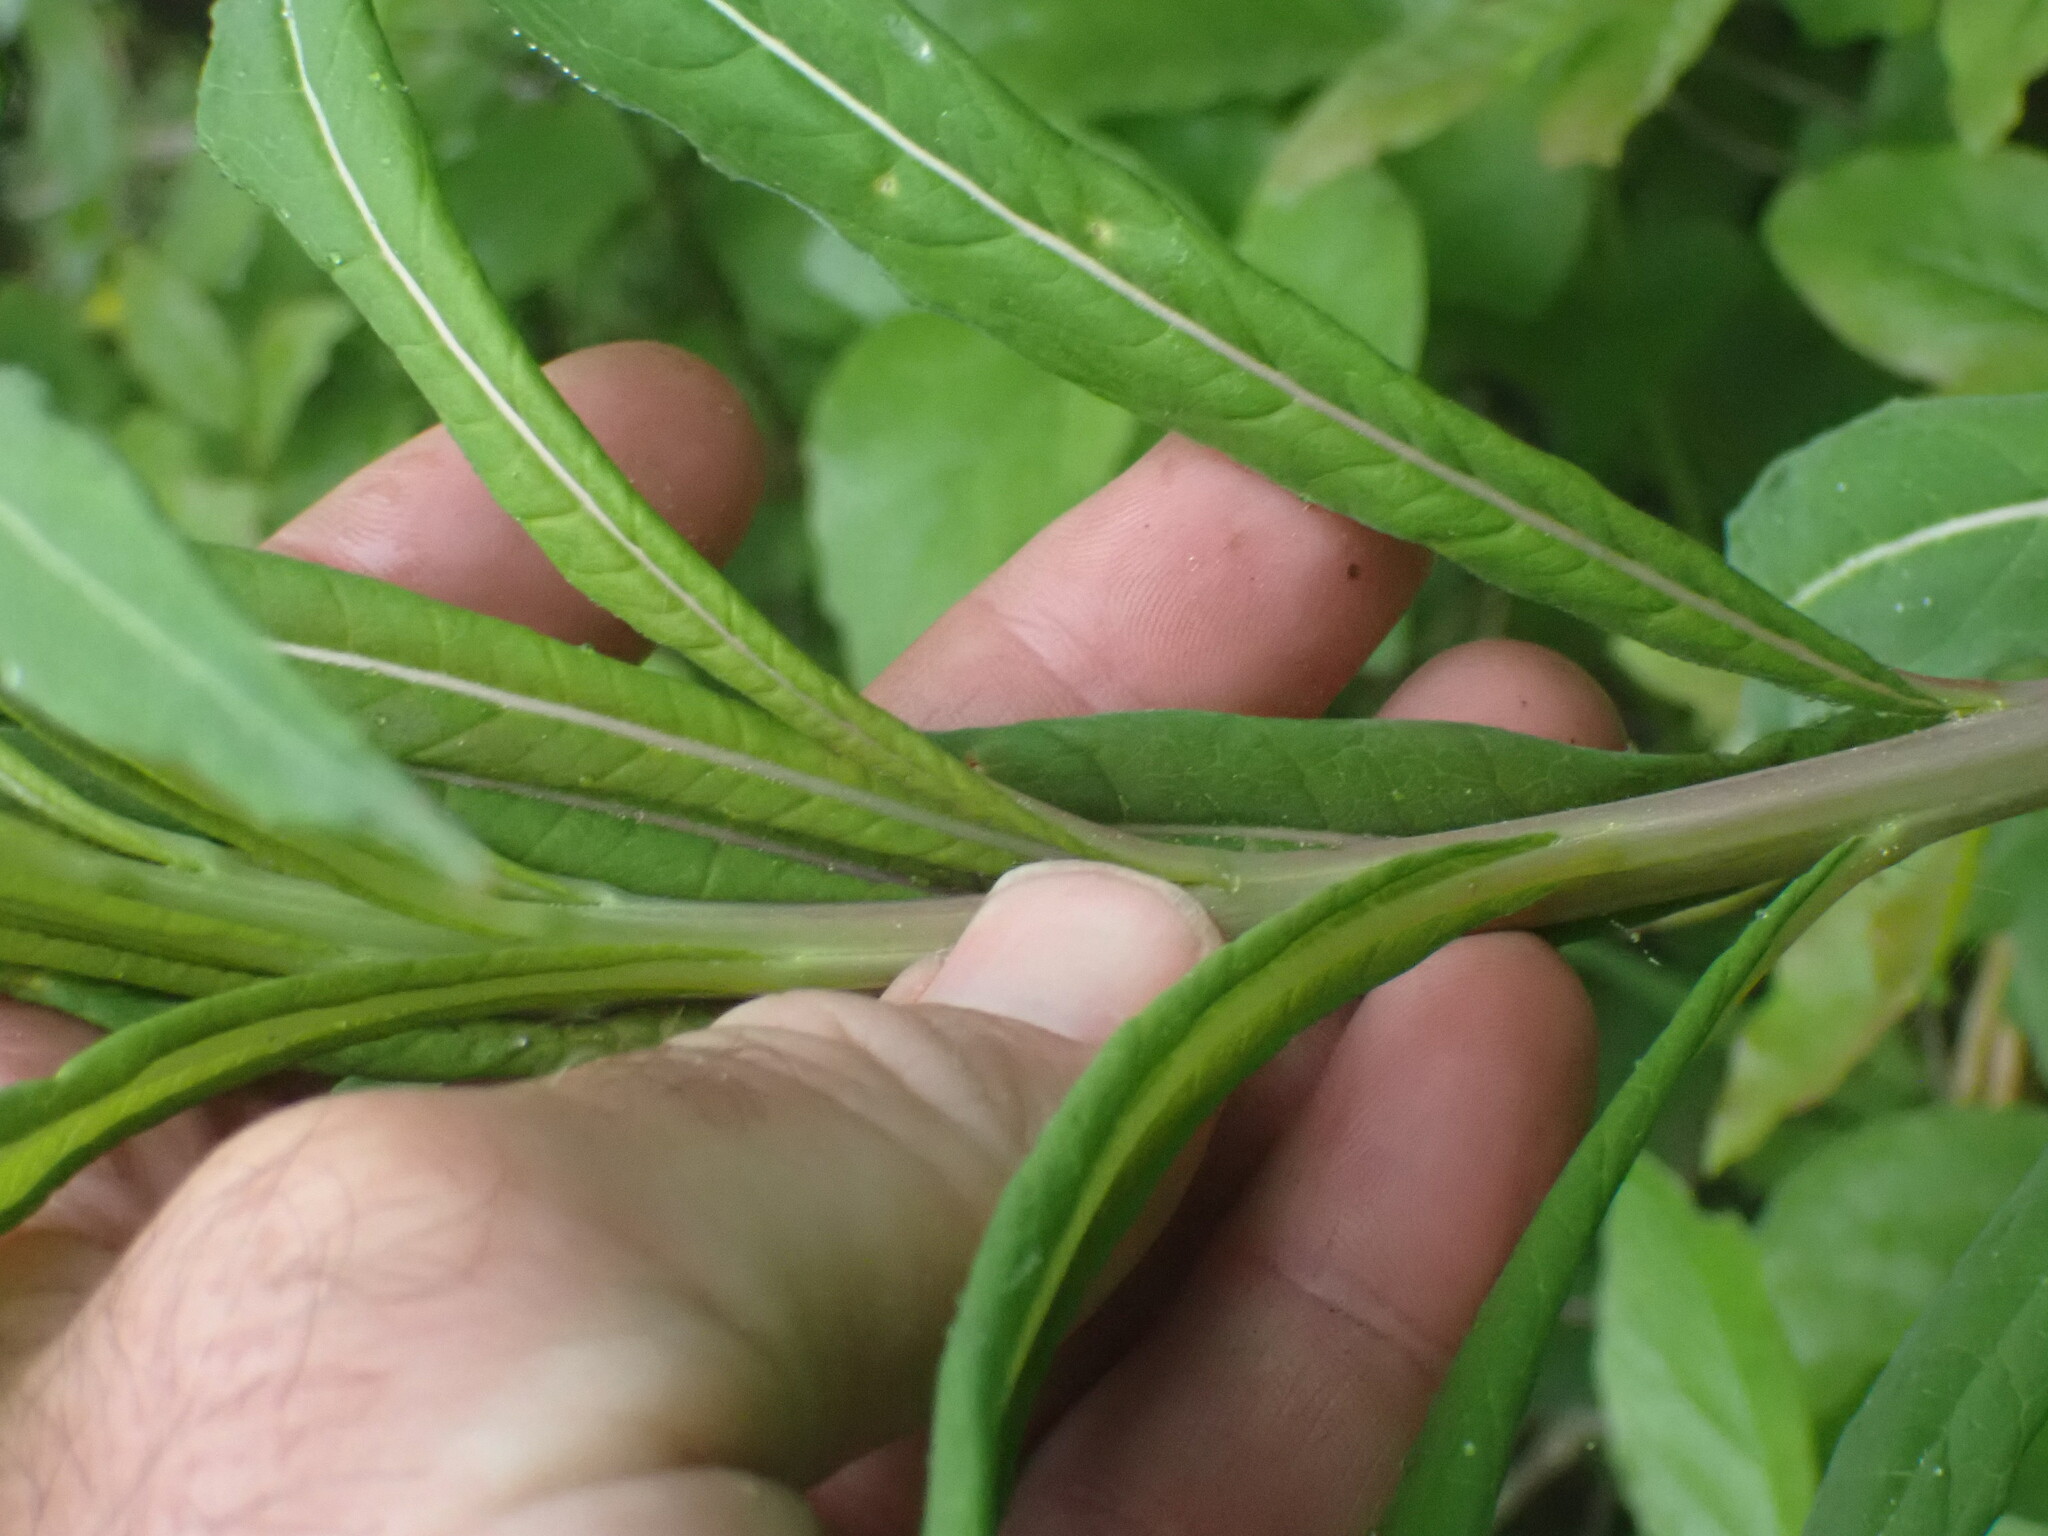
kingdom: Plantae
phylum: Tracheophyta
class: Magnoliopsida
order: Myrtales
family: Onagraceae
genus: Chamaenerion
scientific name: Chamaenerion angustifolium
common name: Fireweed
